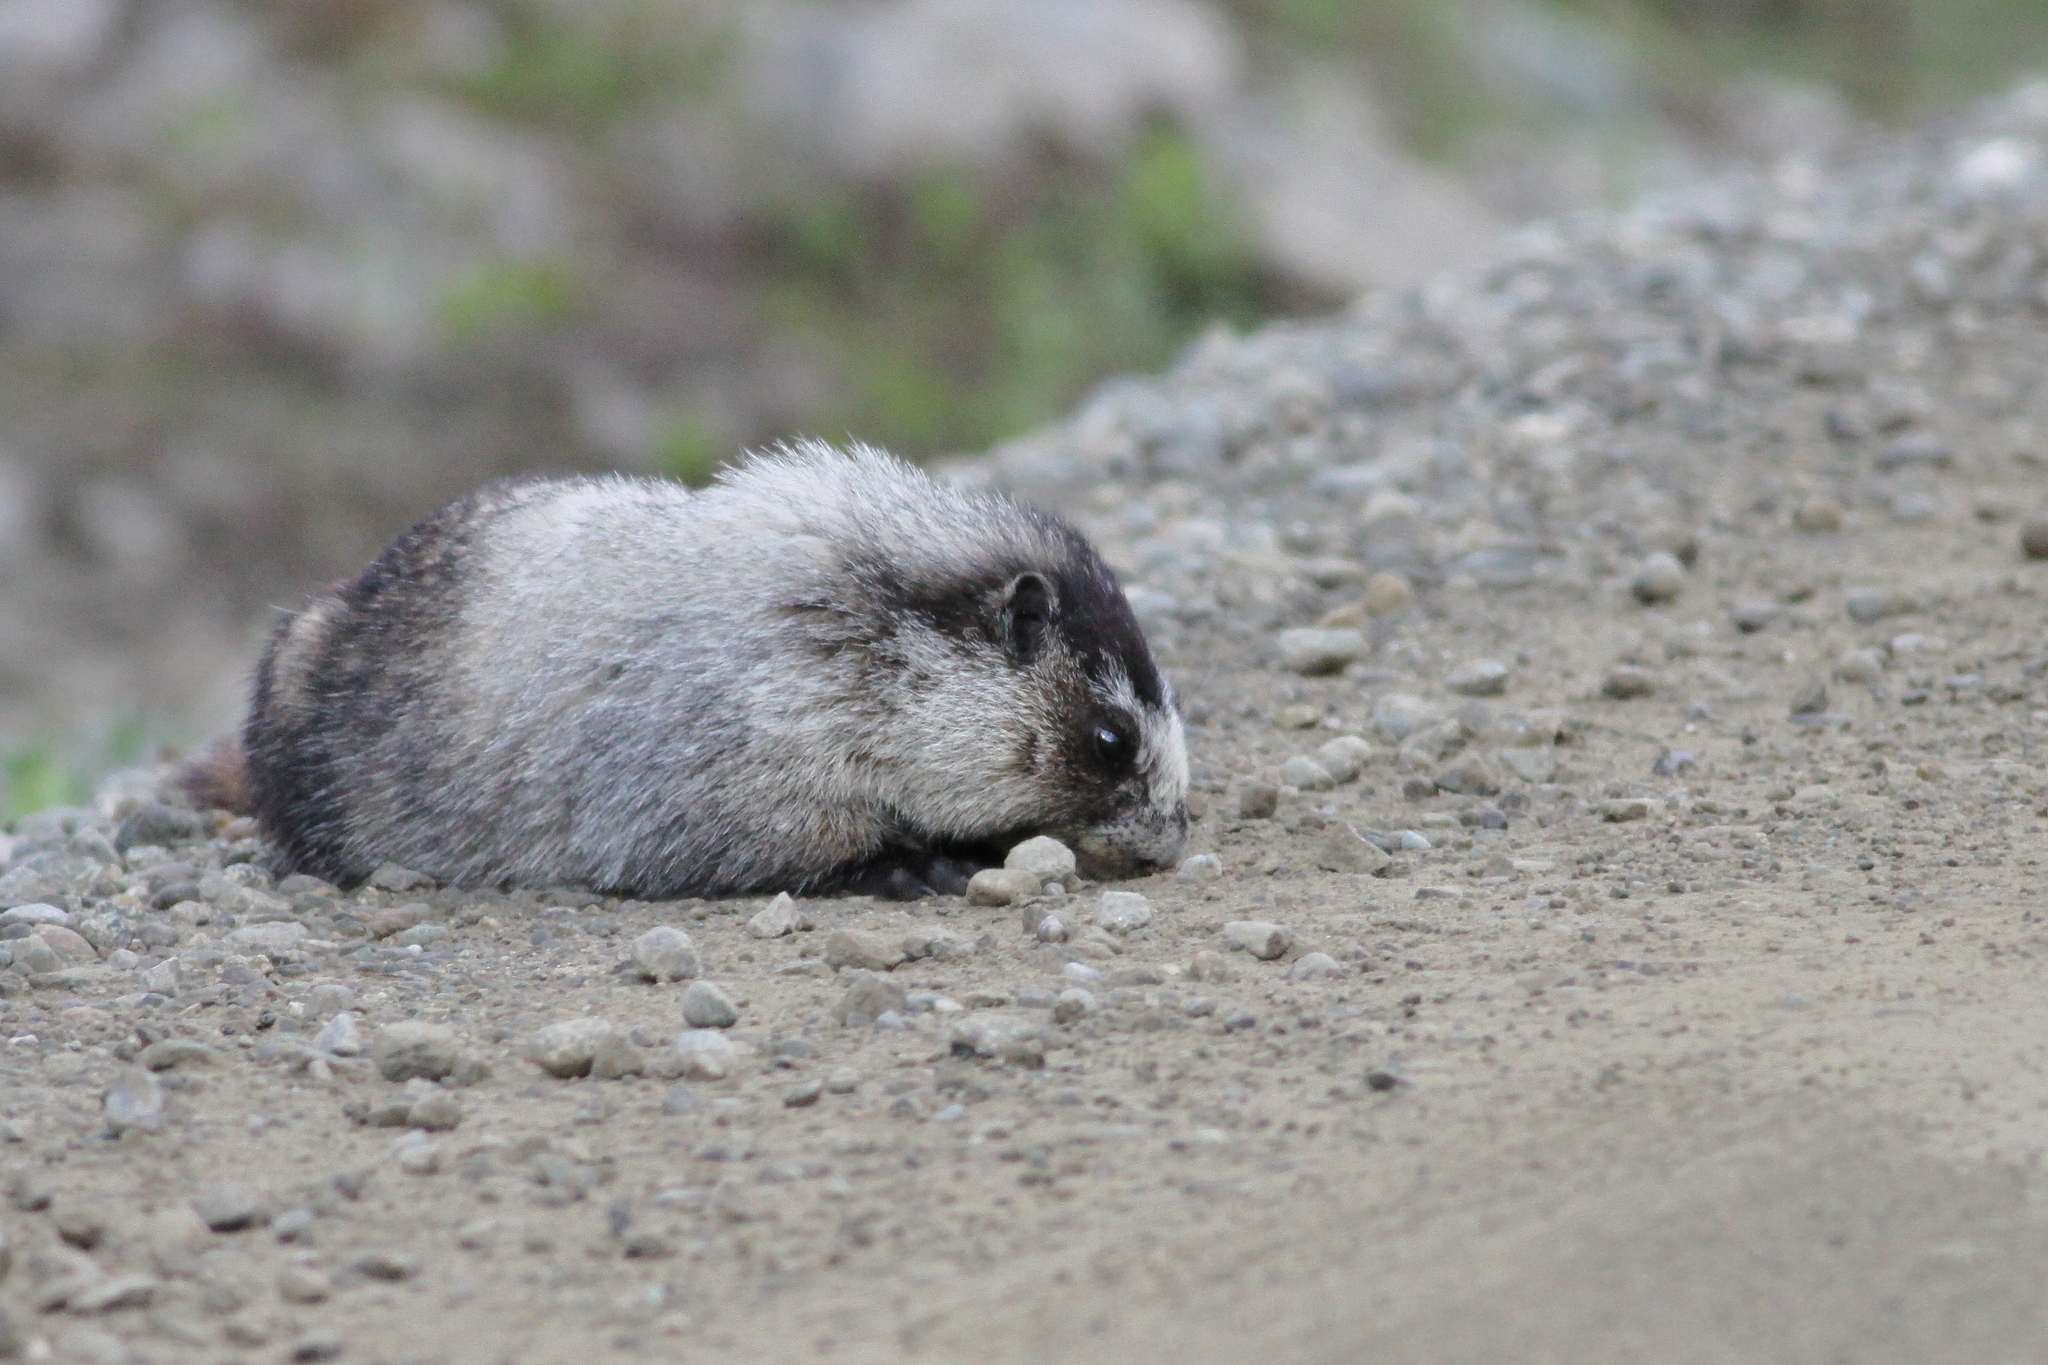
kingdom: Animalia
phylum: Chordata
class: Mammalia
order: Rodentia
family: Sciuridae
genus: Marmota
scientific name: Marmota caligata
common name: Hoary marmot
